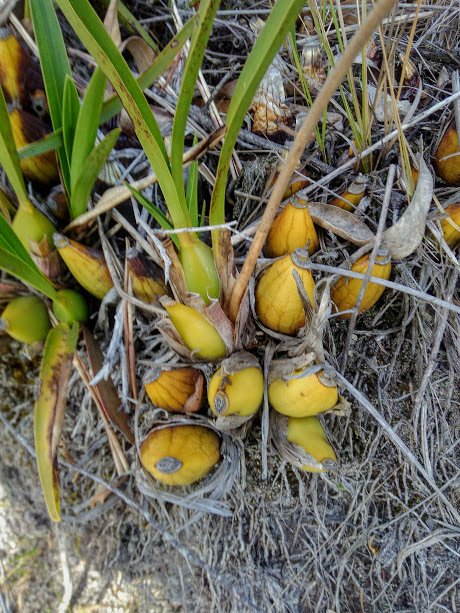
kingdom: Plantae
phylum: Tracheophyta
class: Liliopsida
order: Asparagales
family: Orchidaceae
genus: Cyrtochilum
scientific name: Cyrtochilum densiflorum
